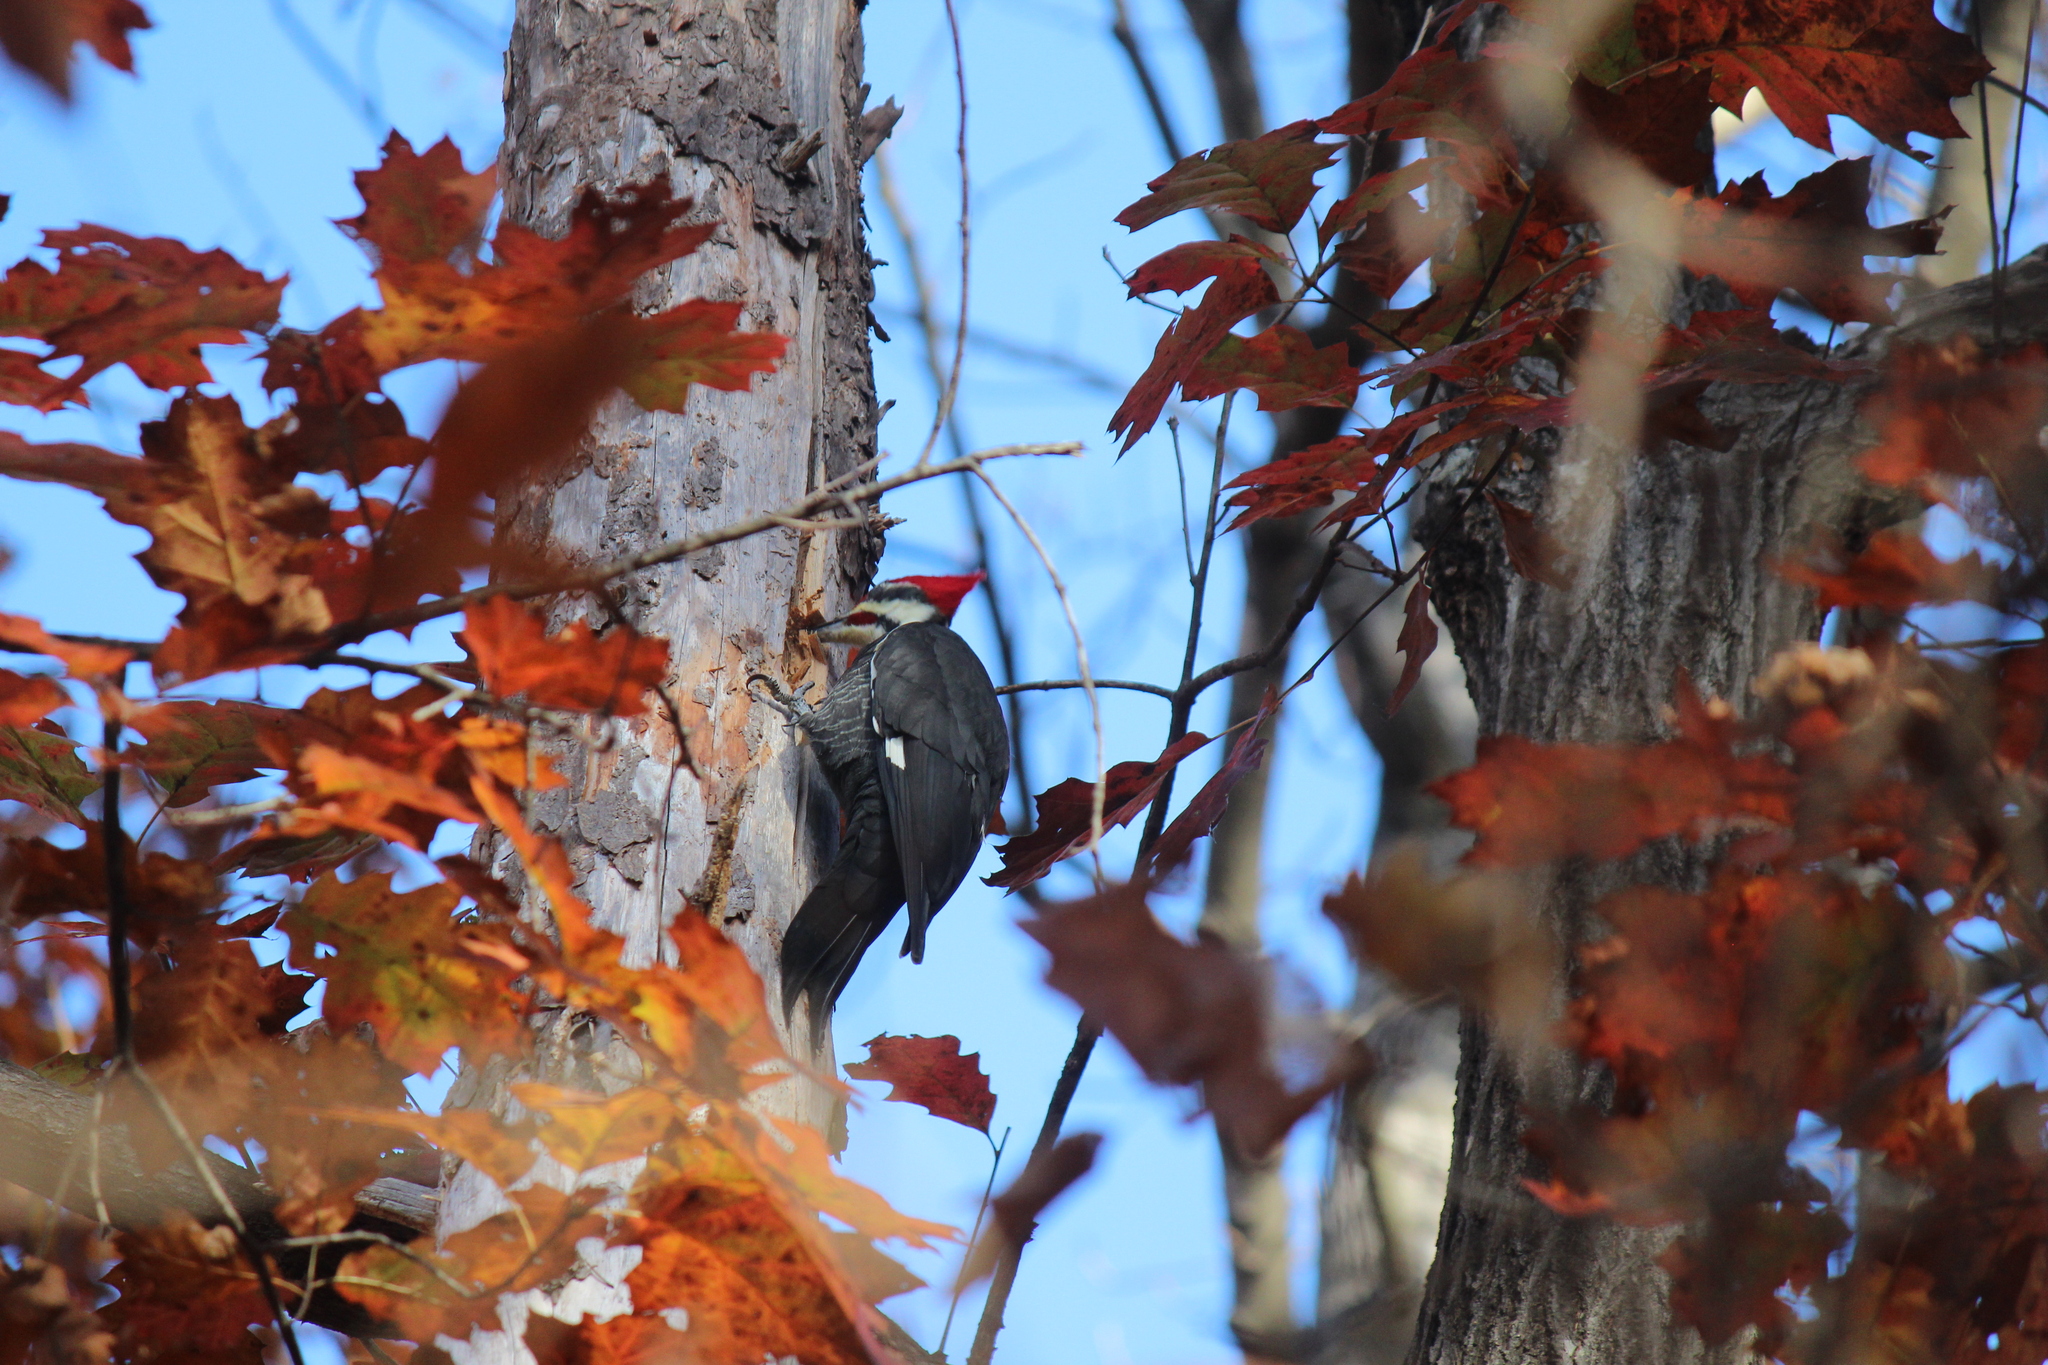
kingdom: Animalia
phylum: Chordata
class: Aves
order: Piciformes
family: Picidae
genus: Dryocopus
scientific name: Dryocopus pileatus
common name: Pileated woodpecker
